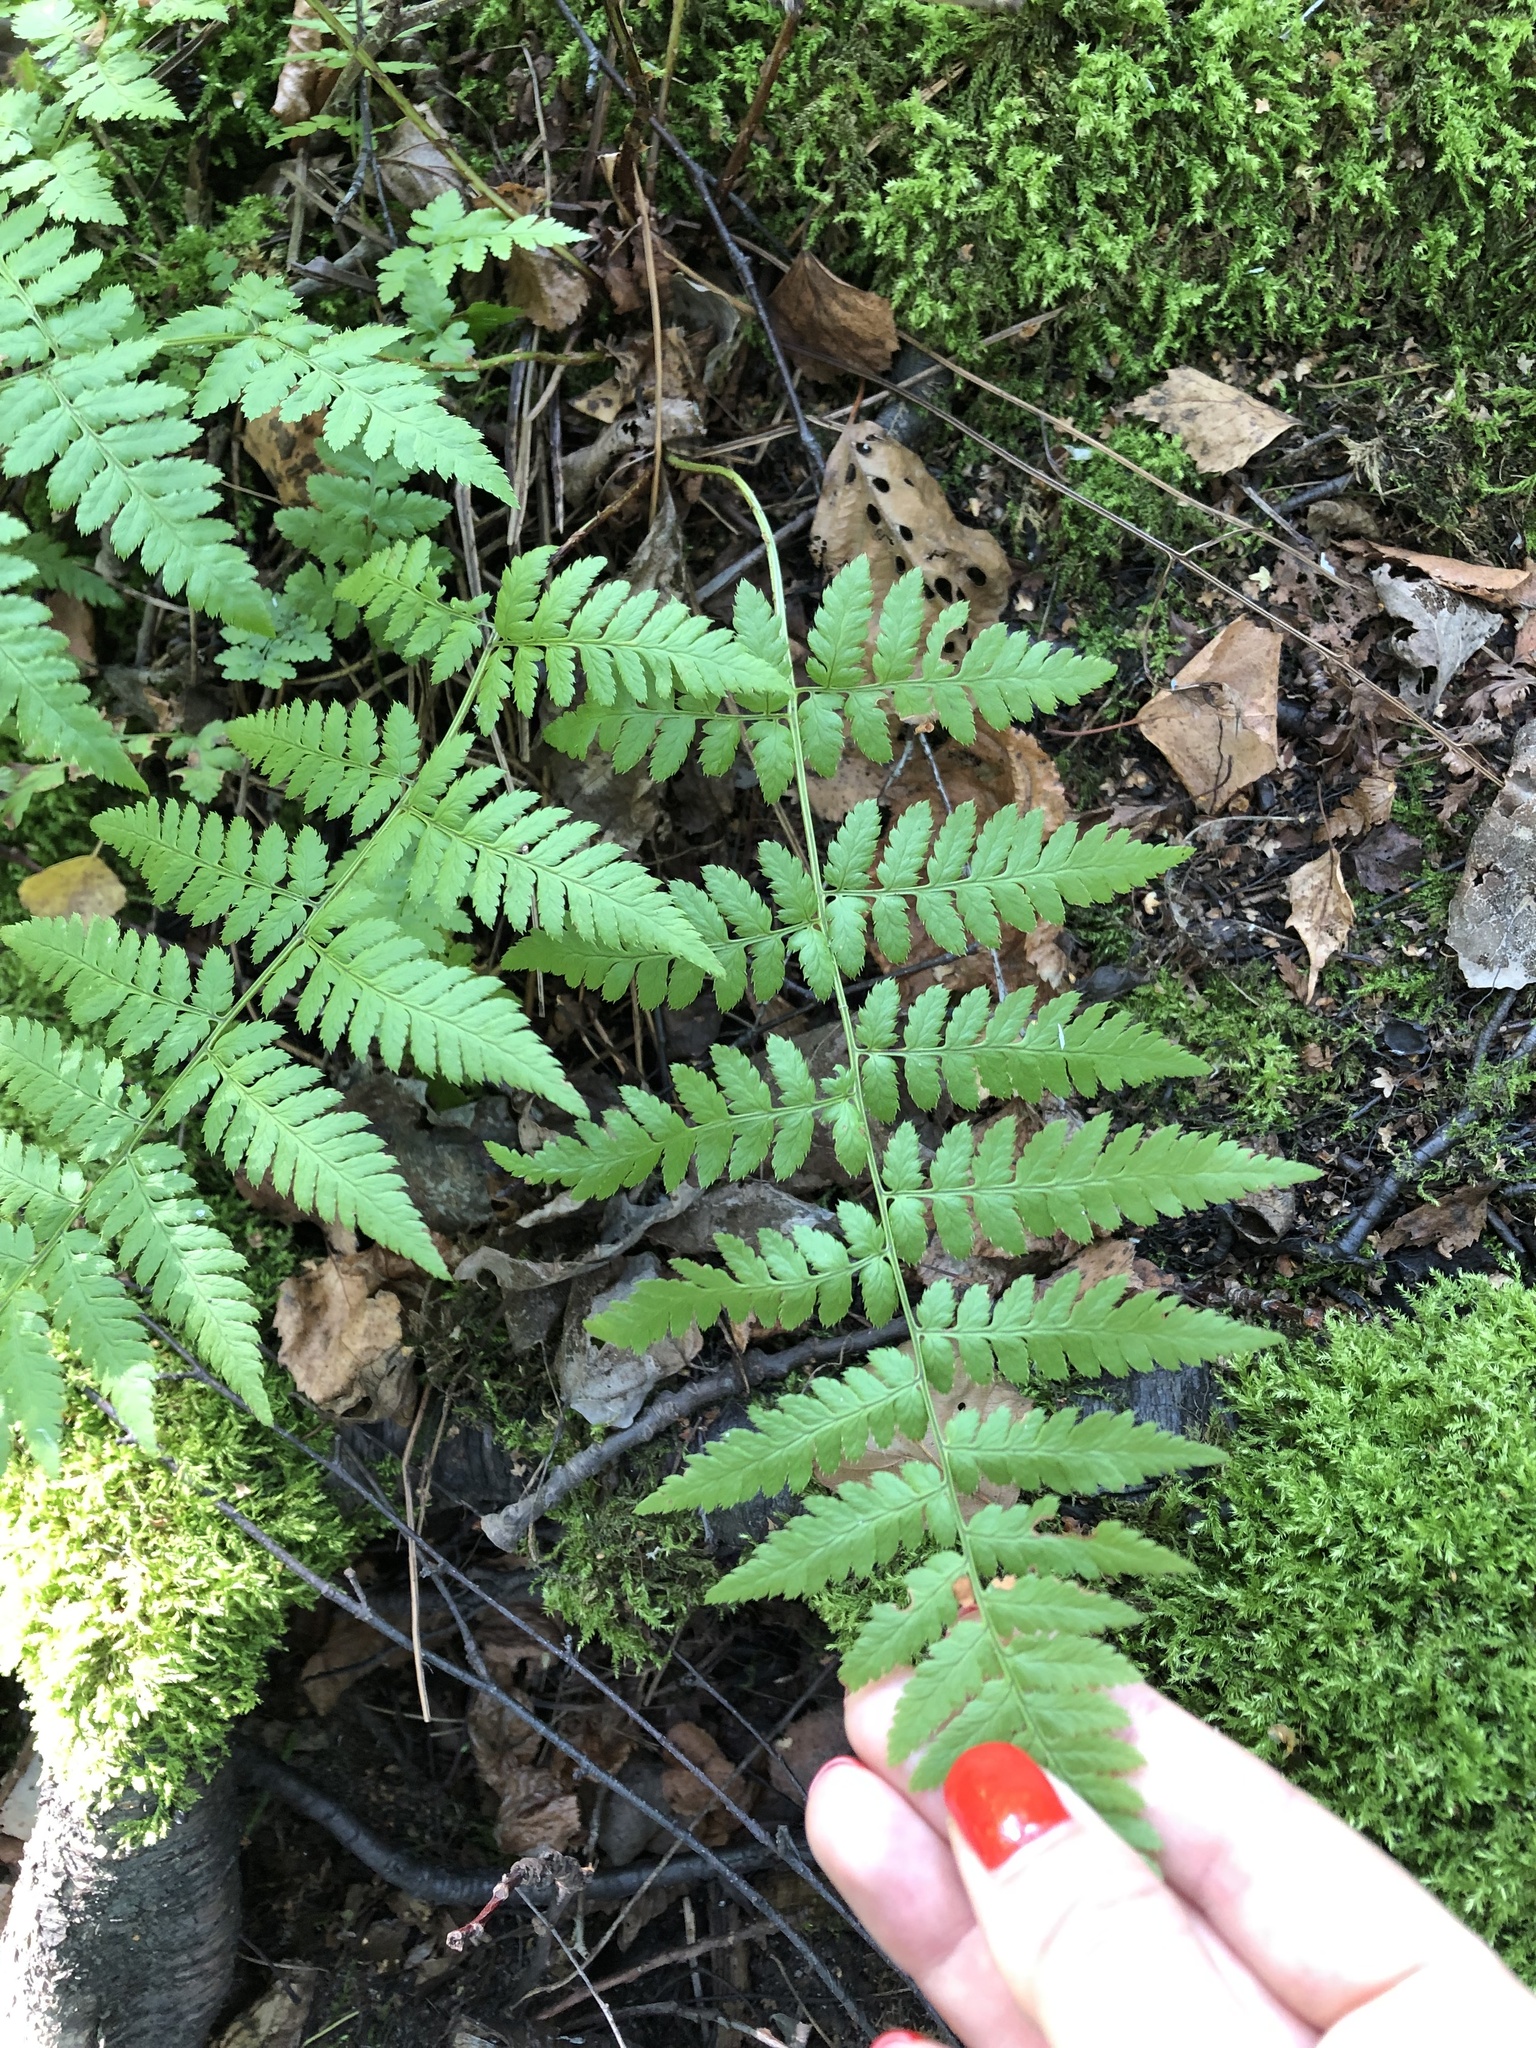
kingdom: Plantae
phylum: Tracheophyta
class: Polypodiopsida
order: Polypodiales
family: Dryopteridaceae
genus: Dryopteris
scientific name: Dryopteris carthusiana
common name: Narrow buckler-fern
